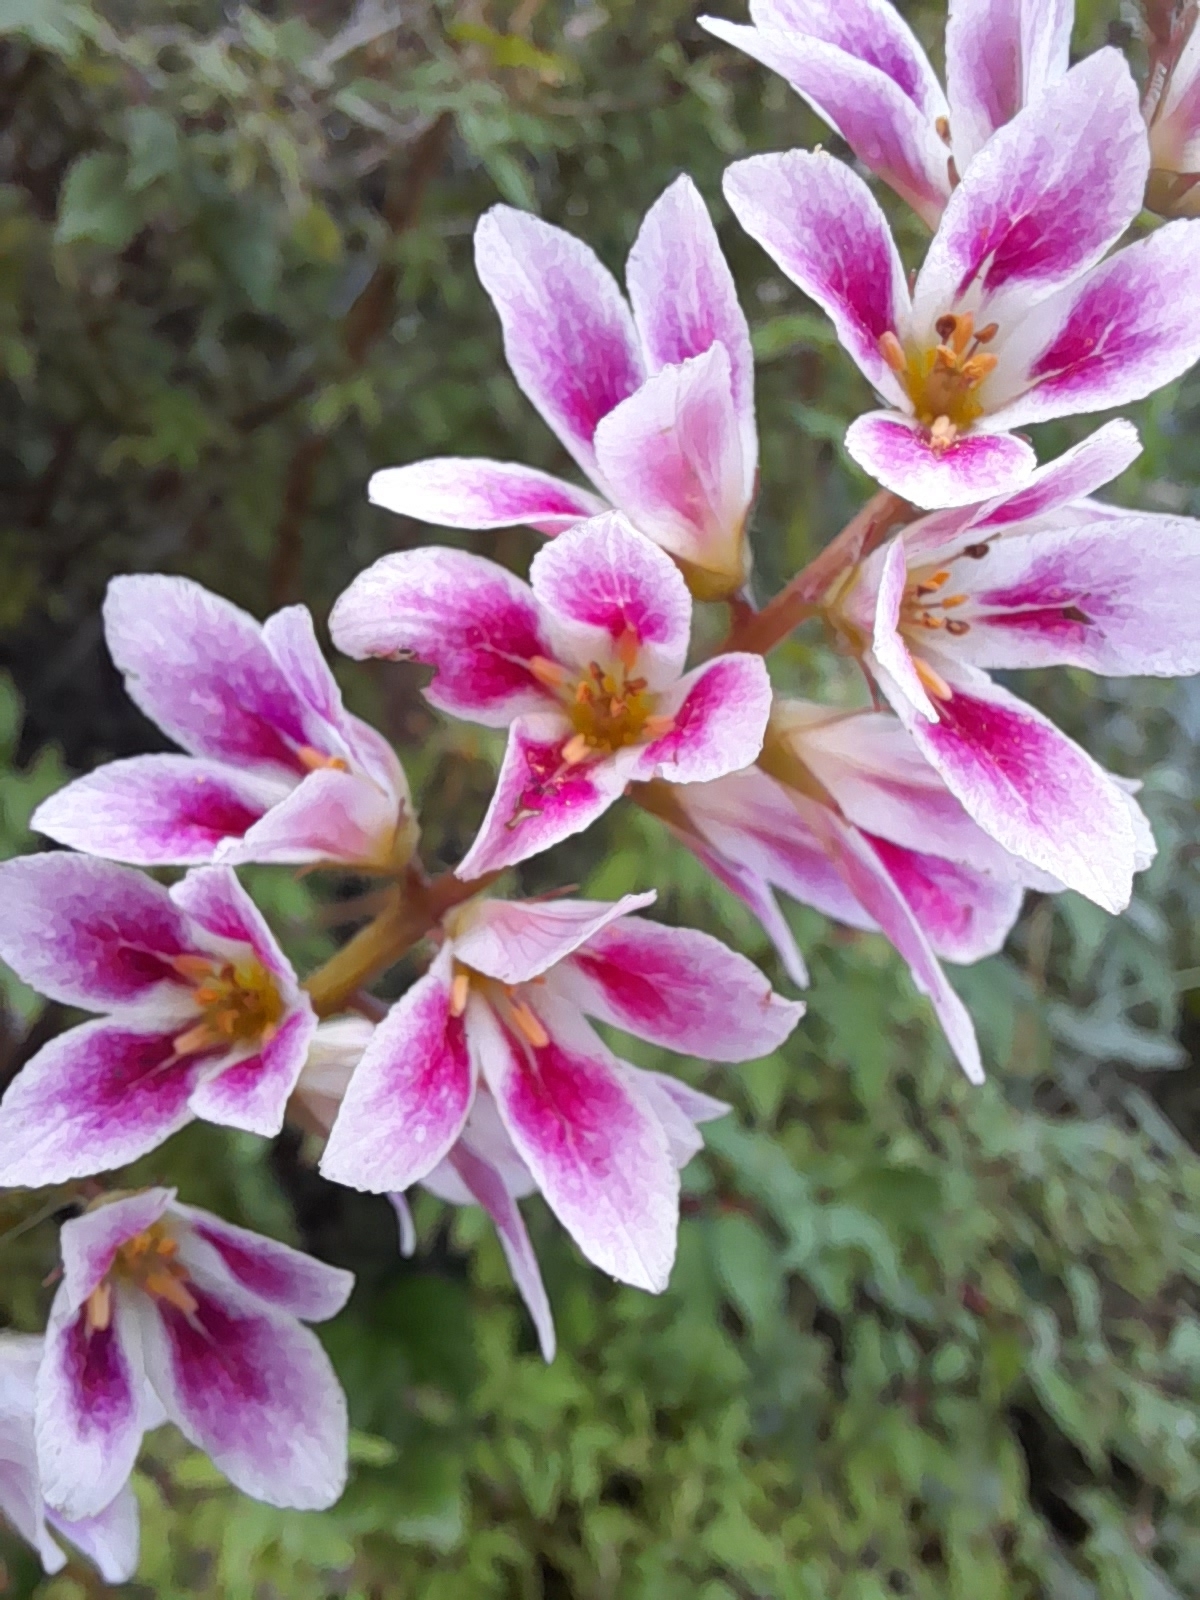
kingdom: Plantae
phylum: Tracheophyta
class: Magnoliopsida
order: Geraniales
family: Francoaceae
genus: Francoa
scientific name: Francoa appendiculata
